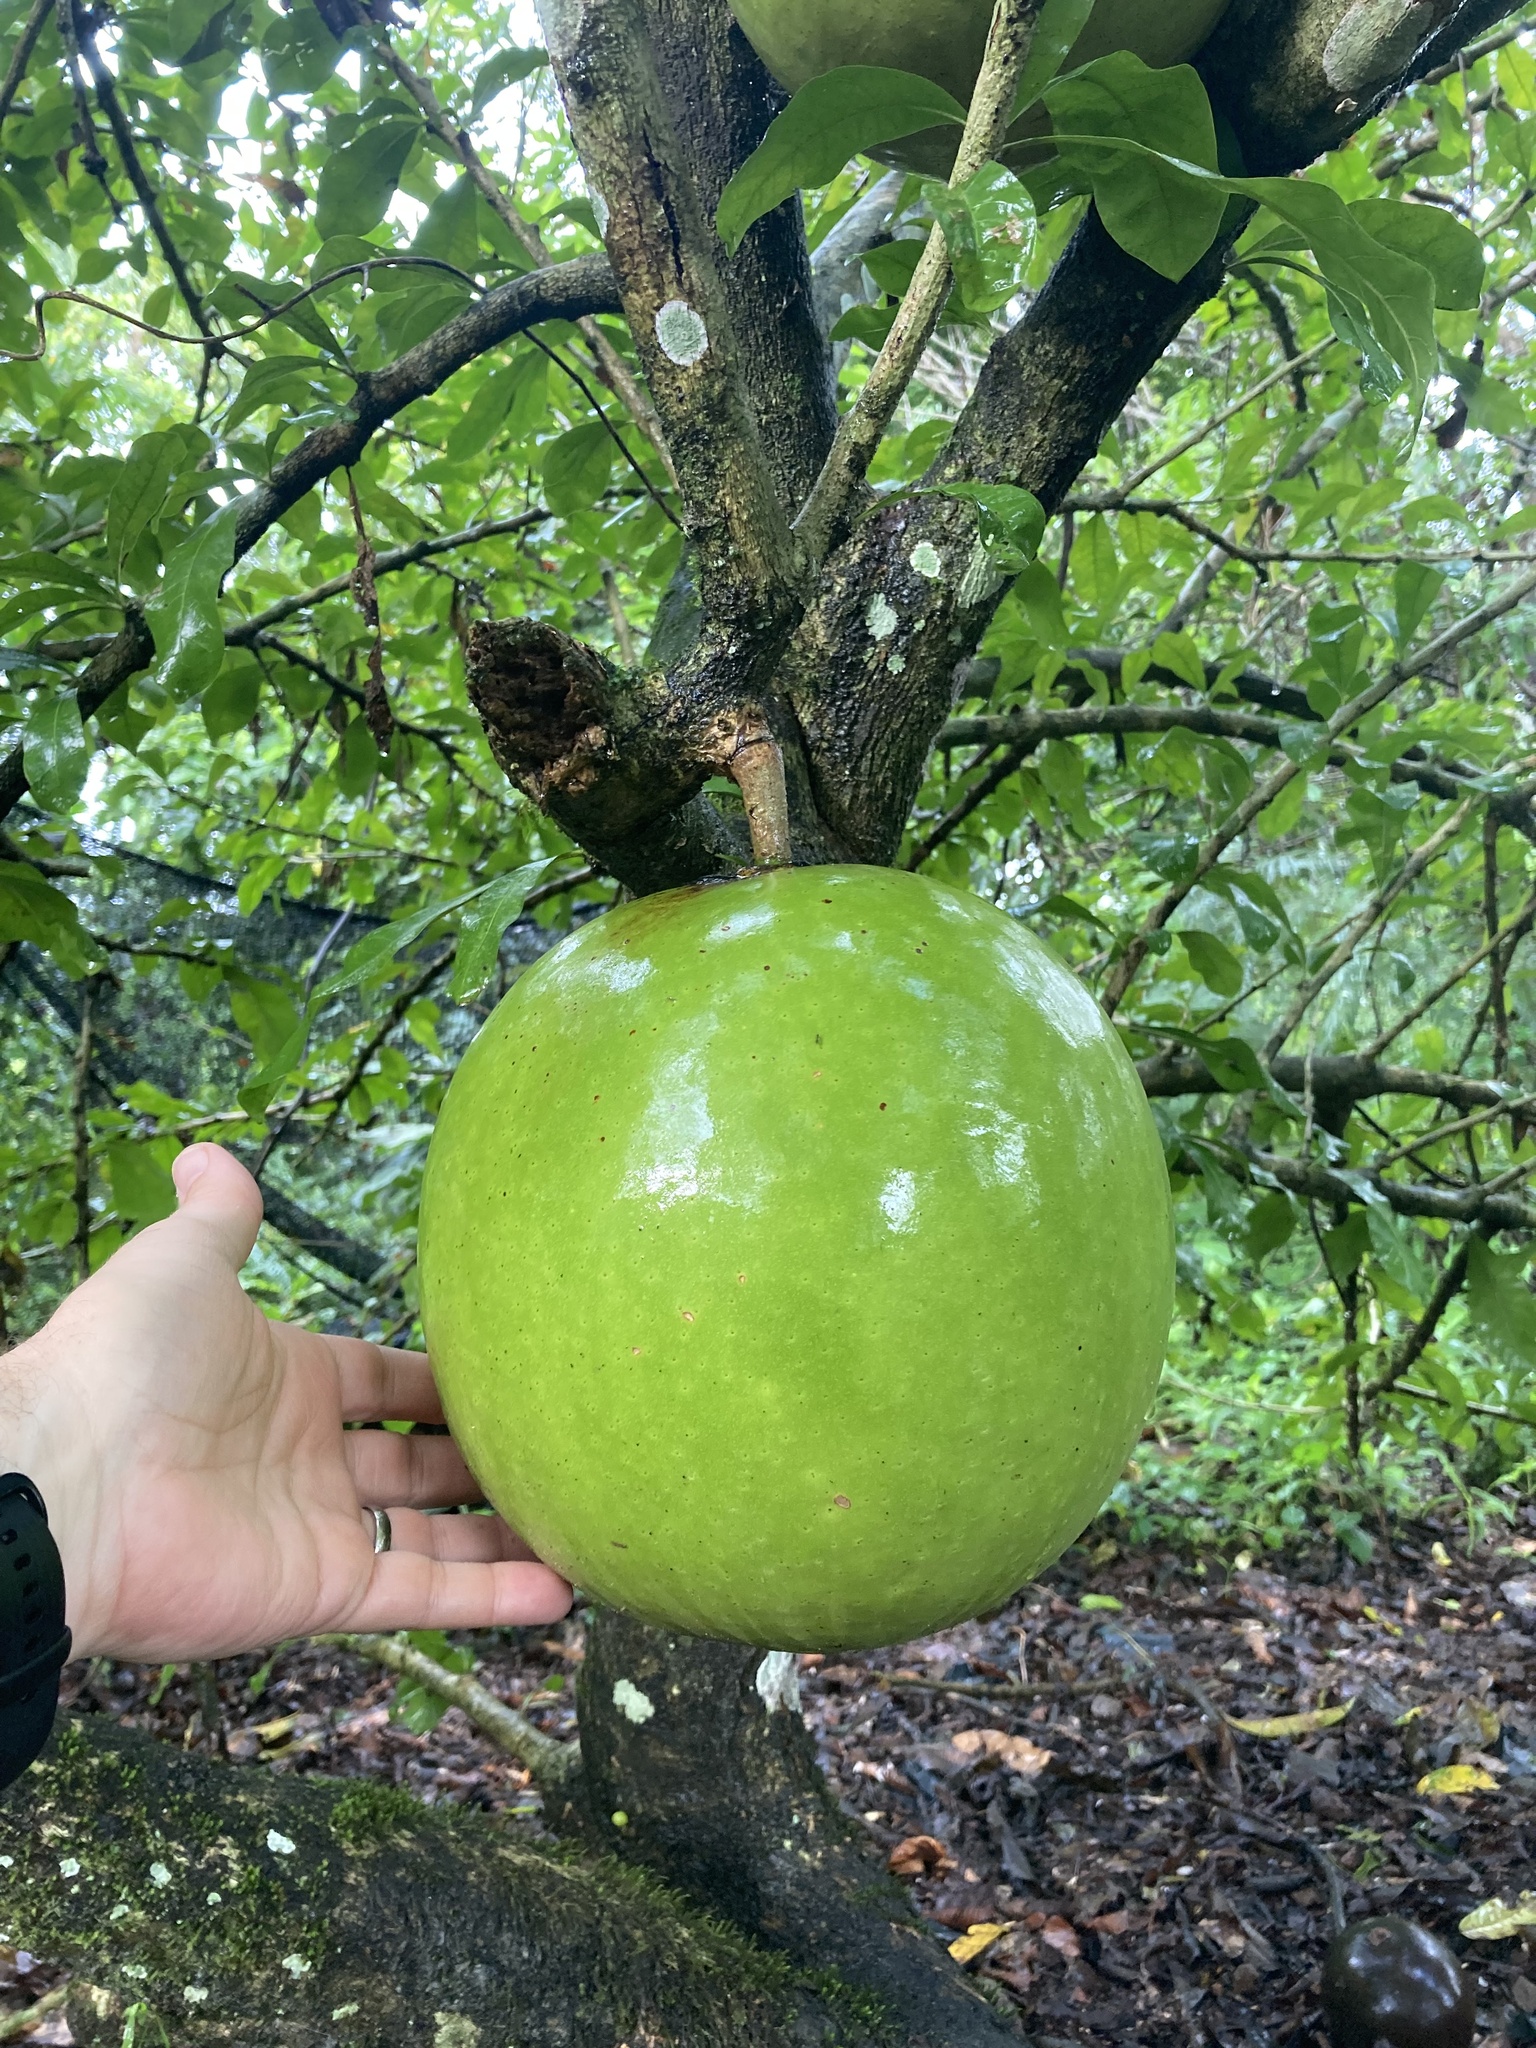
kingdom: Plantae
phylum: Tracheophyta
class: Magnoliopsida
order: Lamiales
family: Bignoniaceae
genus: Crescentia
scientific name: Crescentia cujete
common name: Calabash
